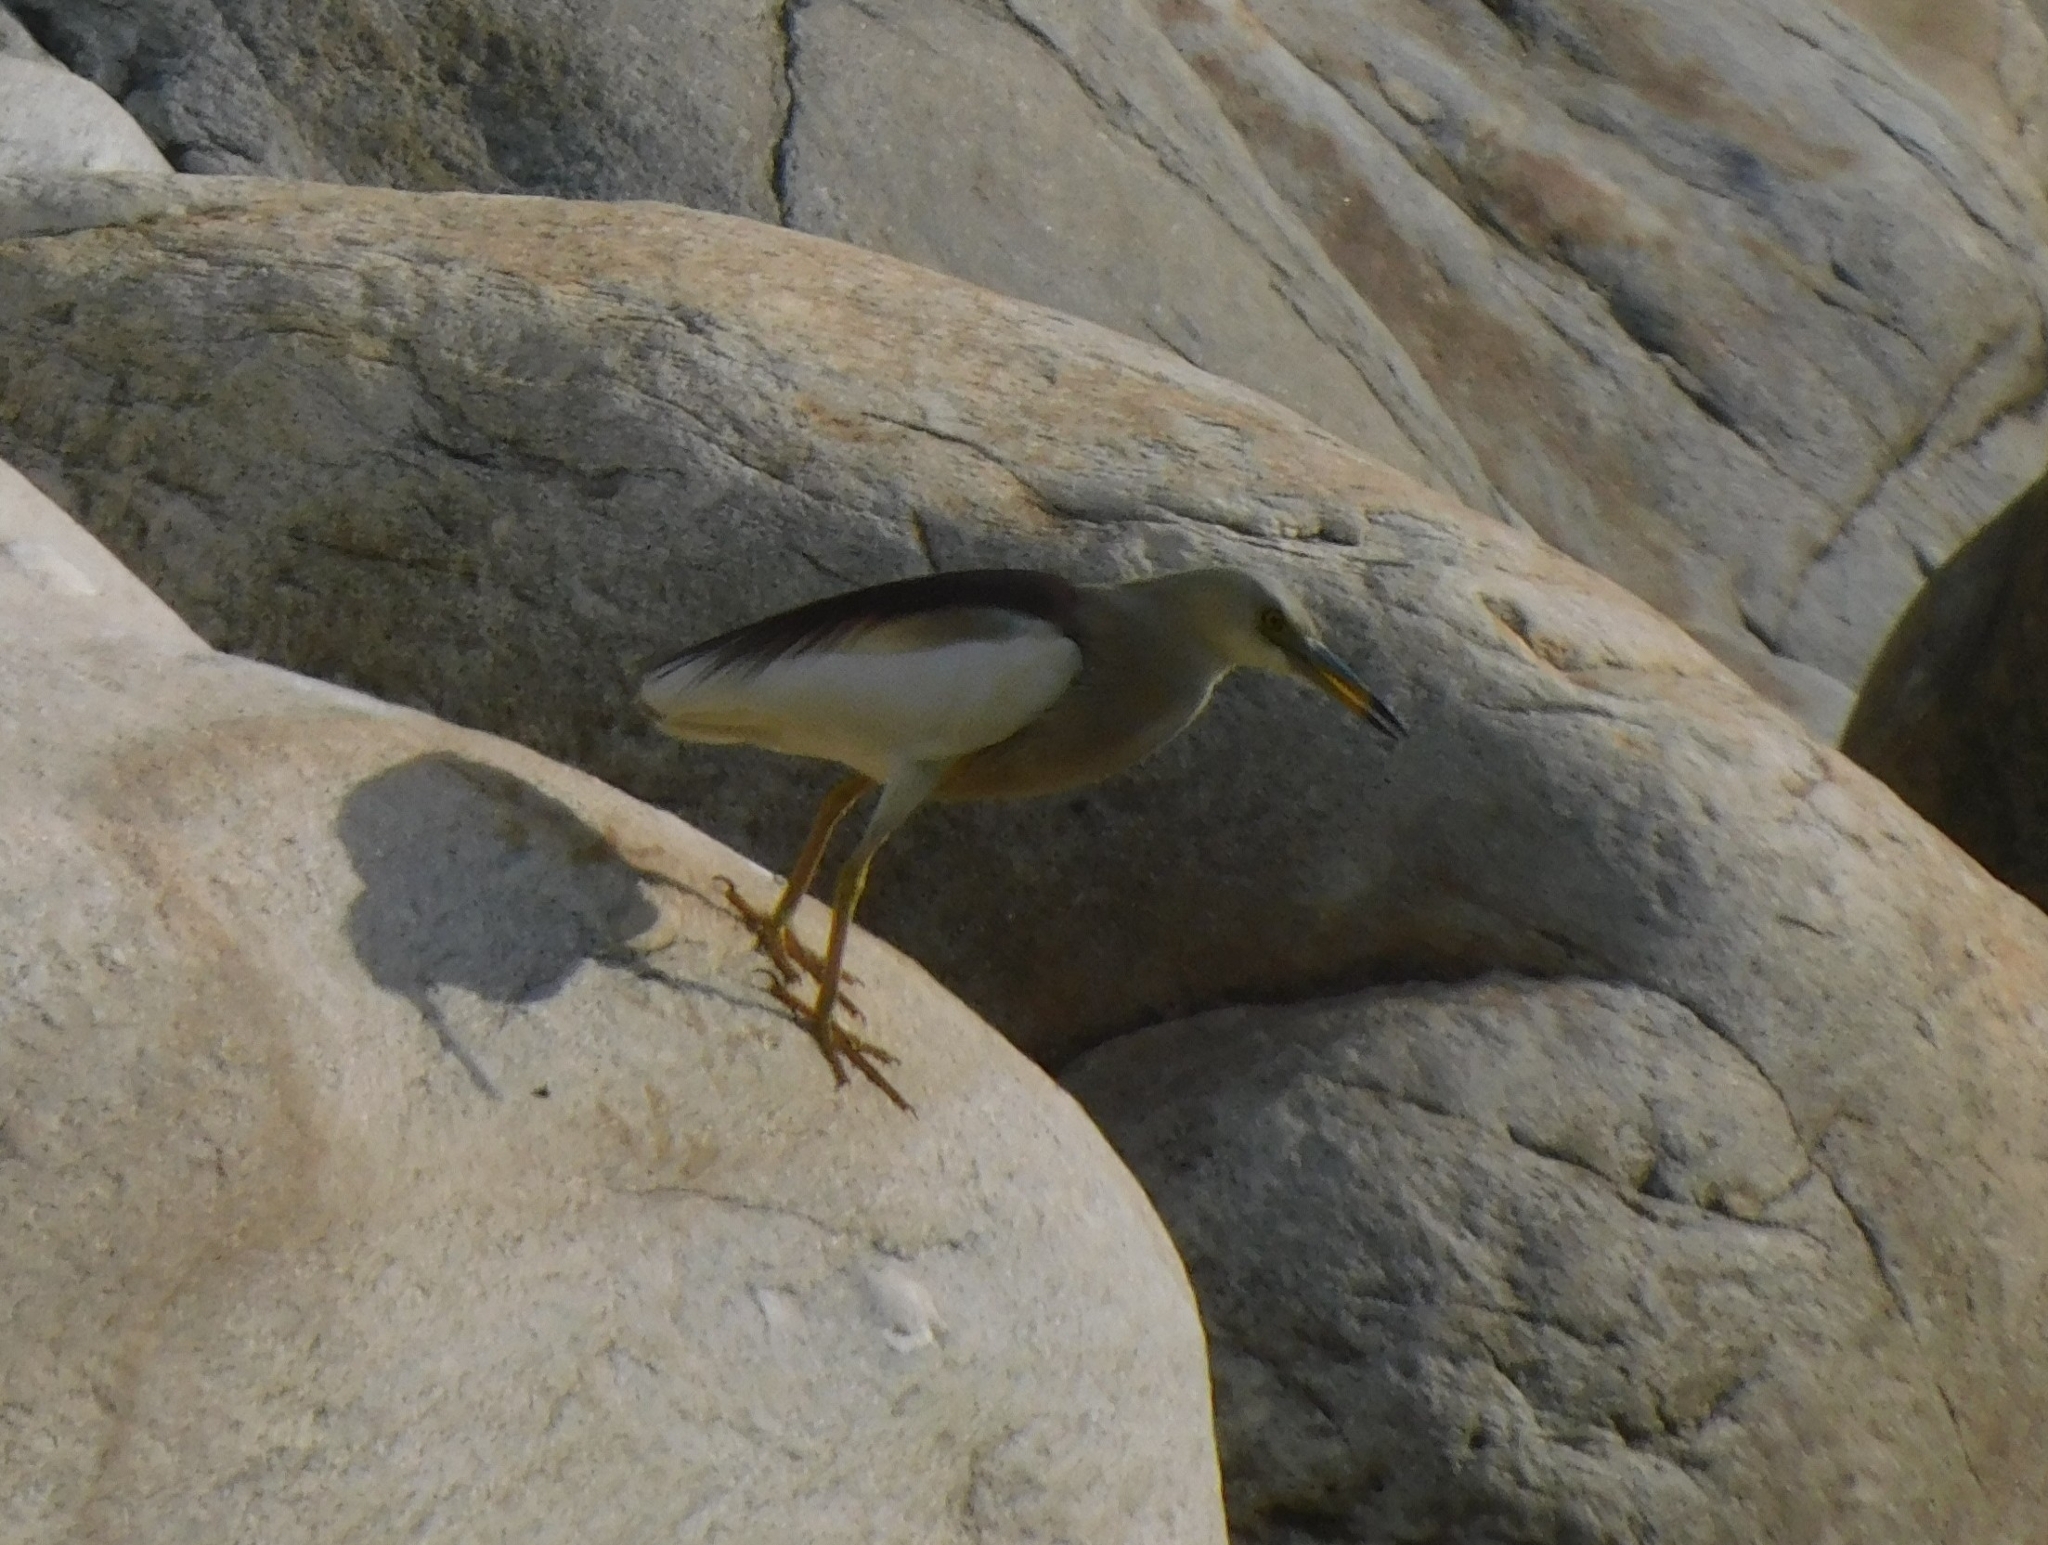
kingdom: Animalia
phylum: Chordata
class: Aves
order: Pelecaniformes
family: Ardeidae
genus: Ardeola
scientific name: Ardeola grayii
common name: Indian pond heron
